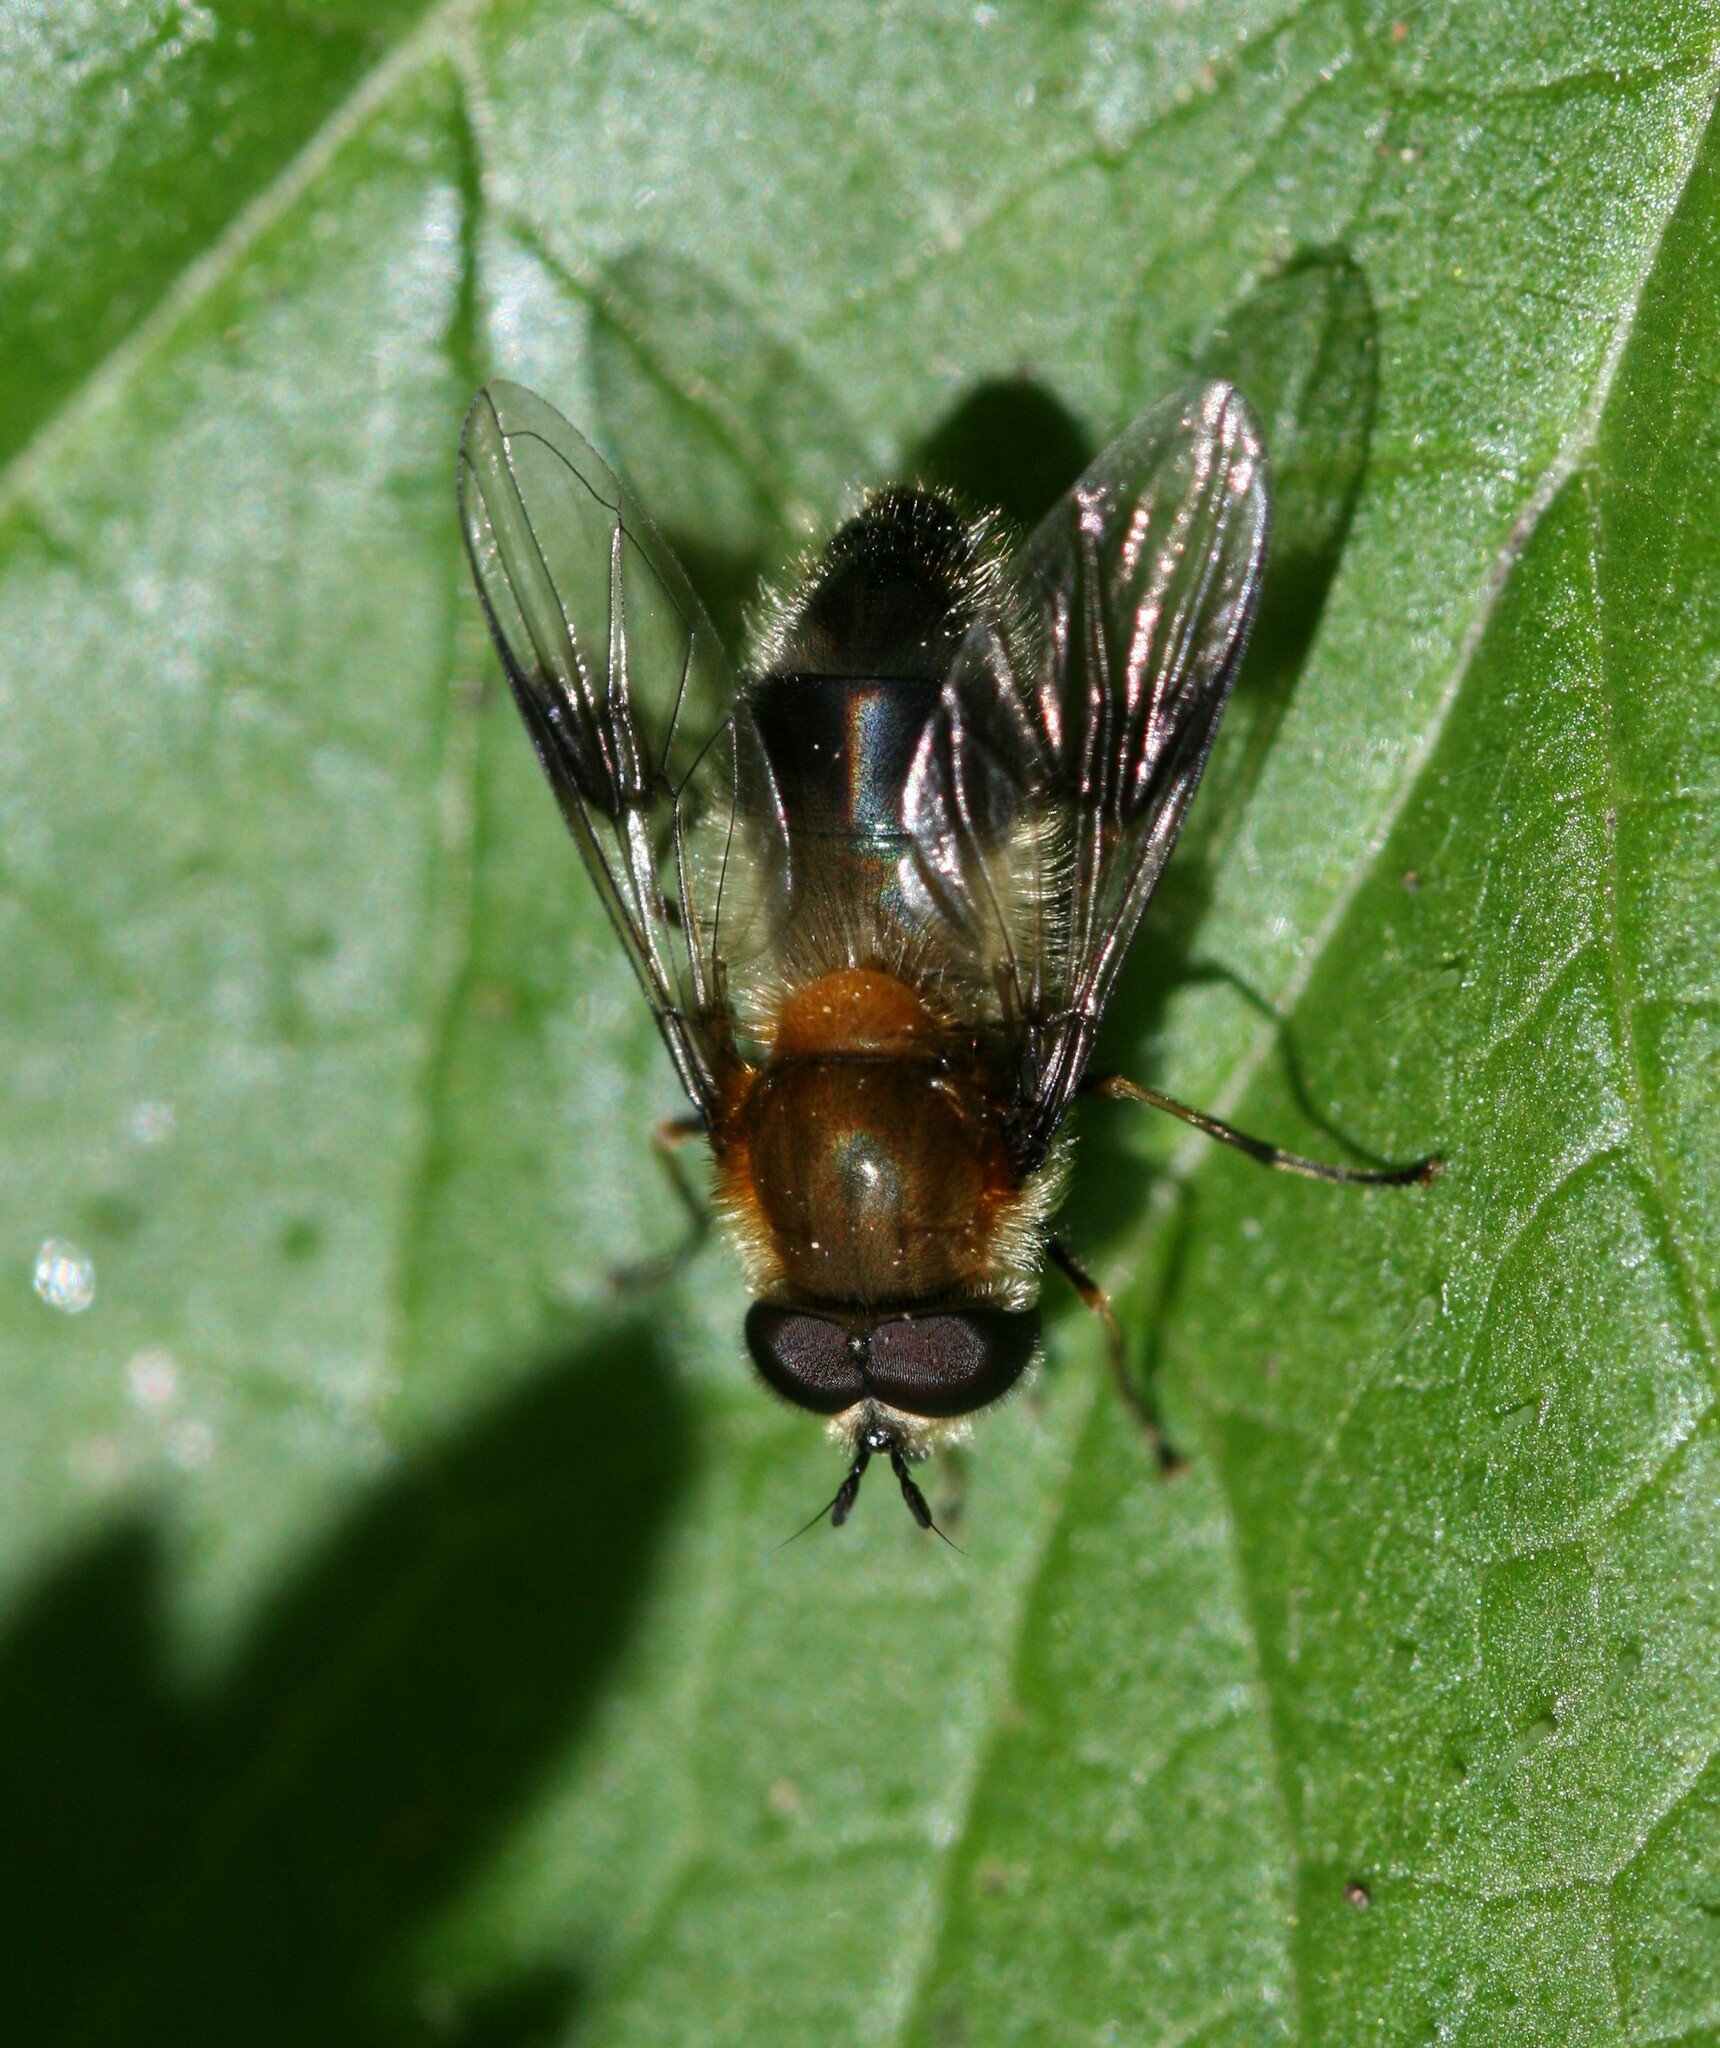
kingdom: Animalia
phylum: Arthropoda
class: Insecta
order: Diptera
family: Syrphidae
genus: Leucozona
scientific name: Leucozona lucorum
